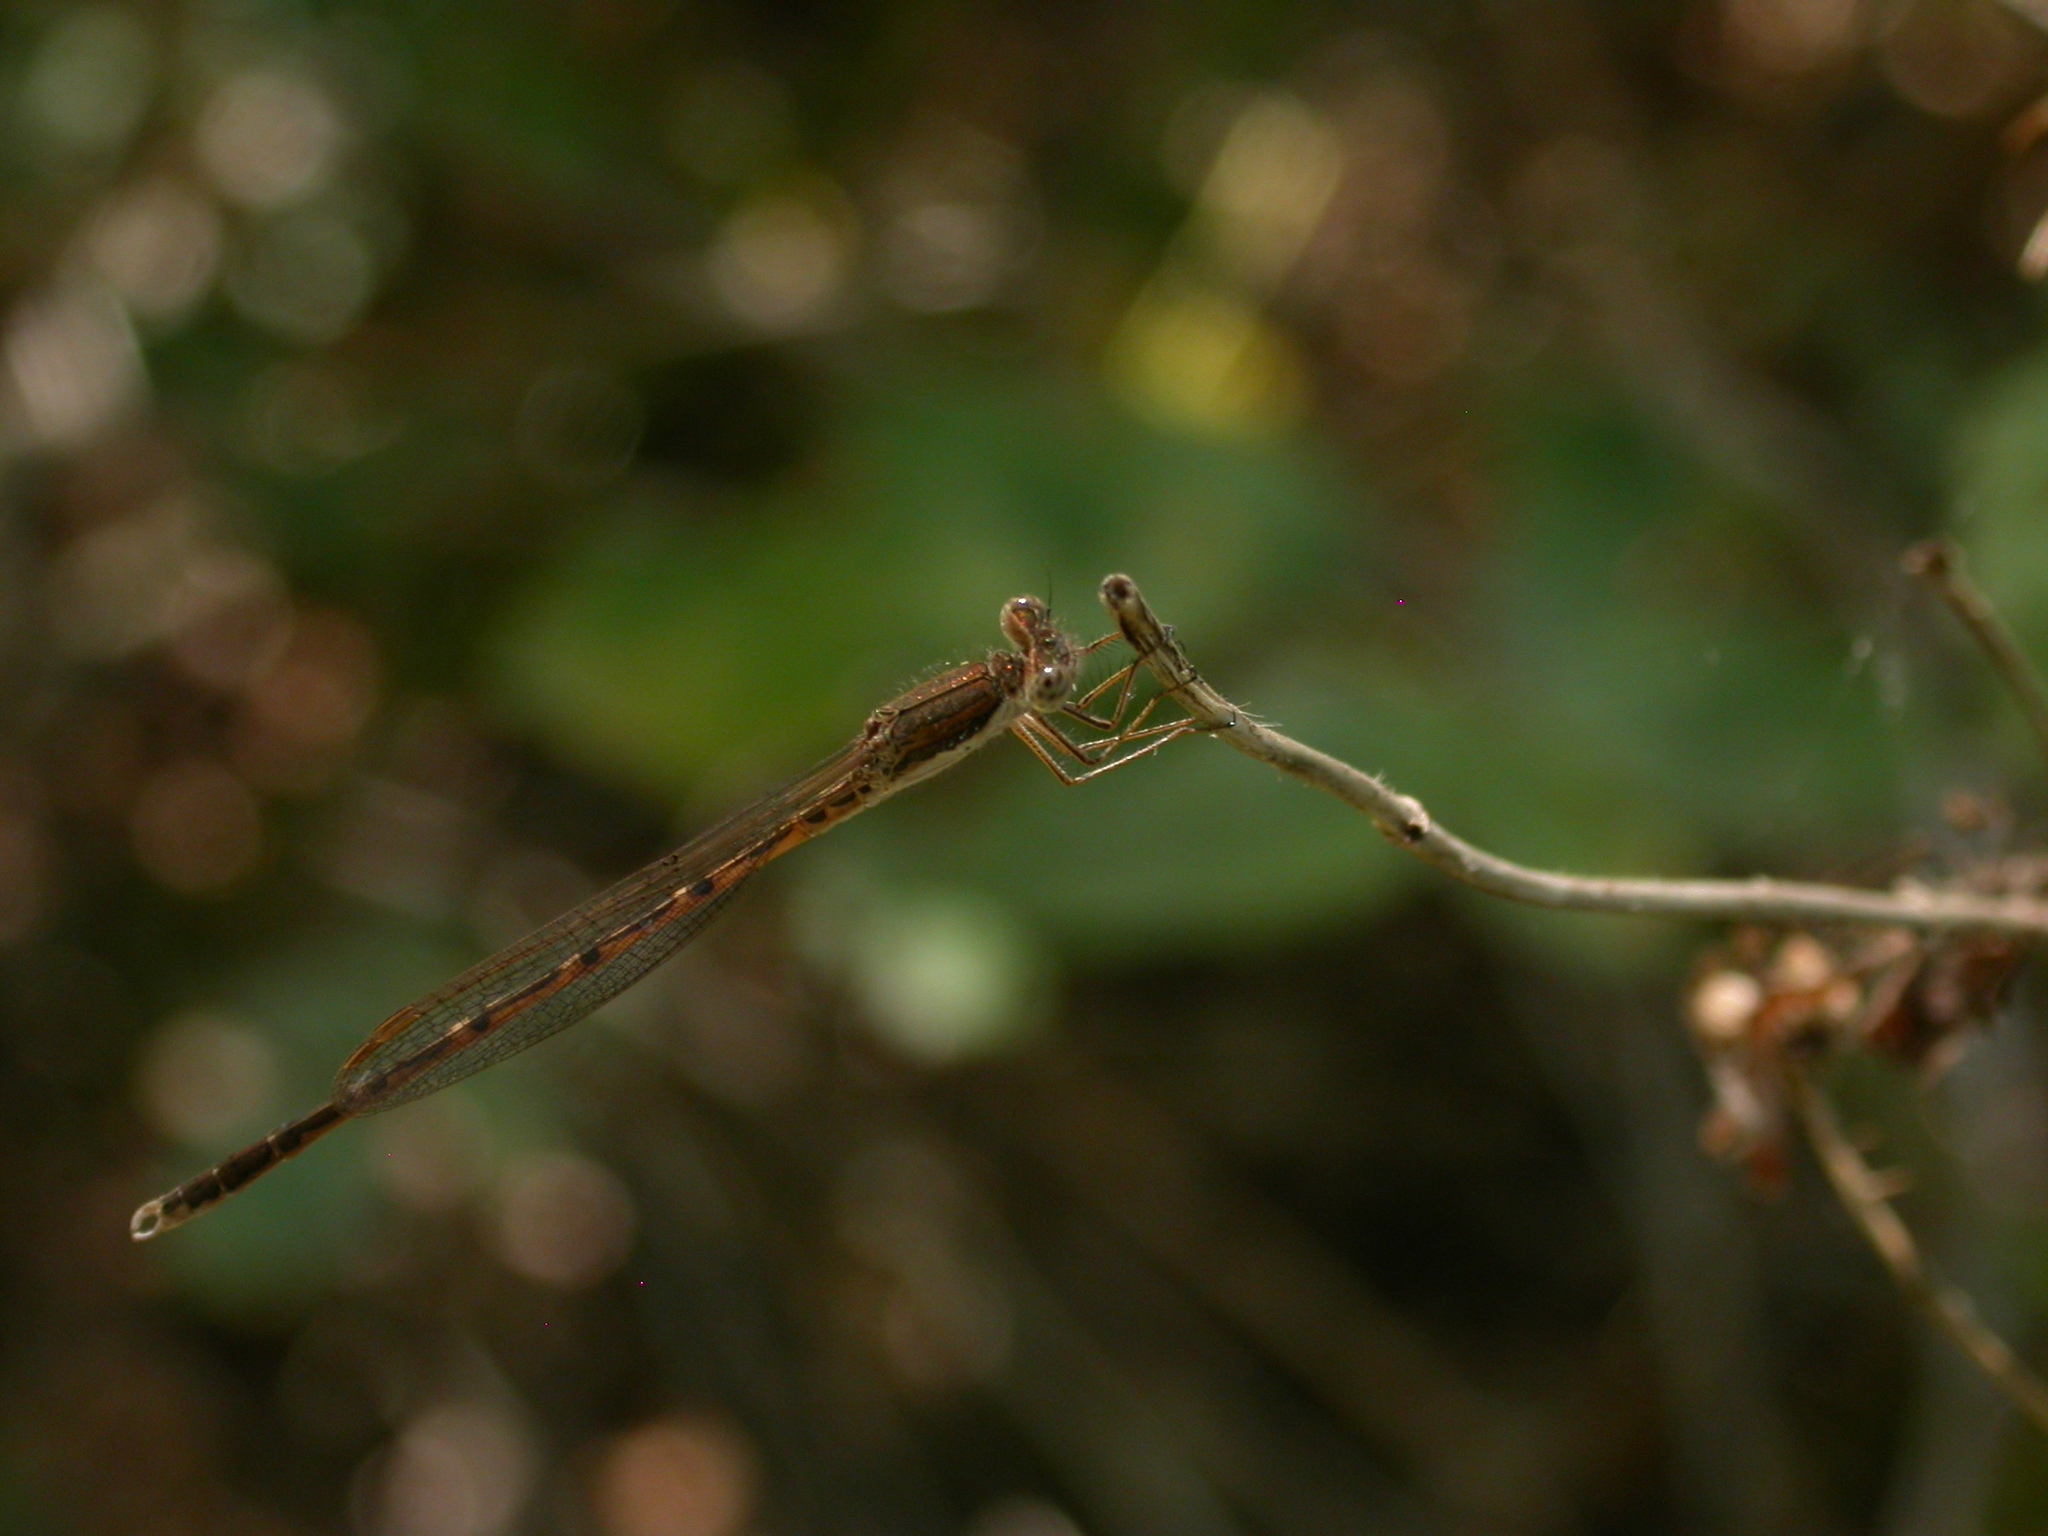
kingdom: Animalia
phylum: Arthropoda
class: Insecta
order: Odonata
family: Lestidae
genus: Sympecma
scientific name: Sympecma fusca
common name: Common winter damsel
